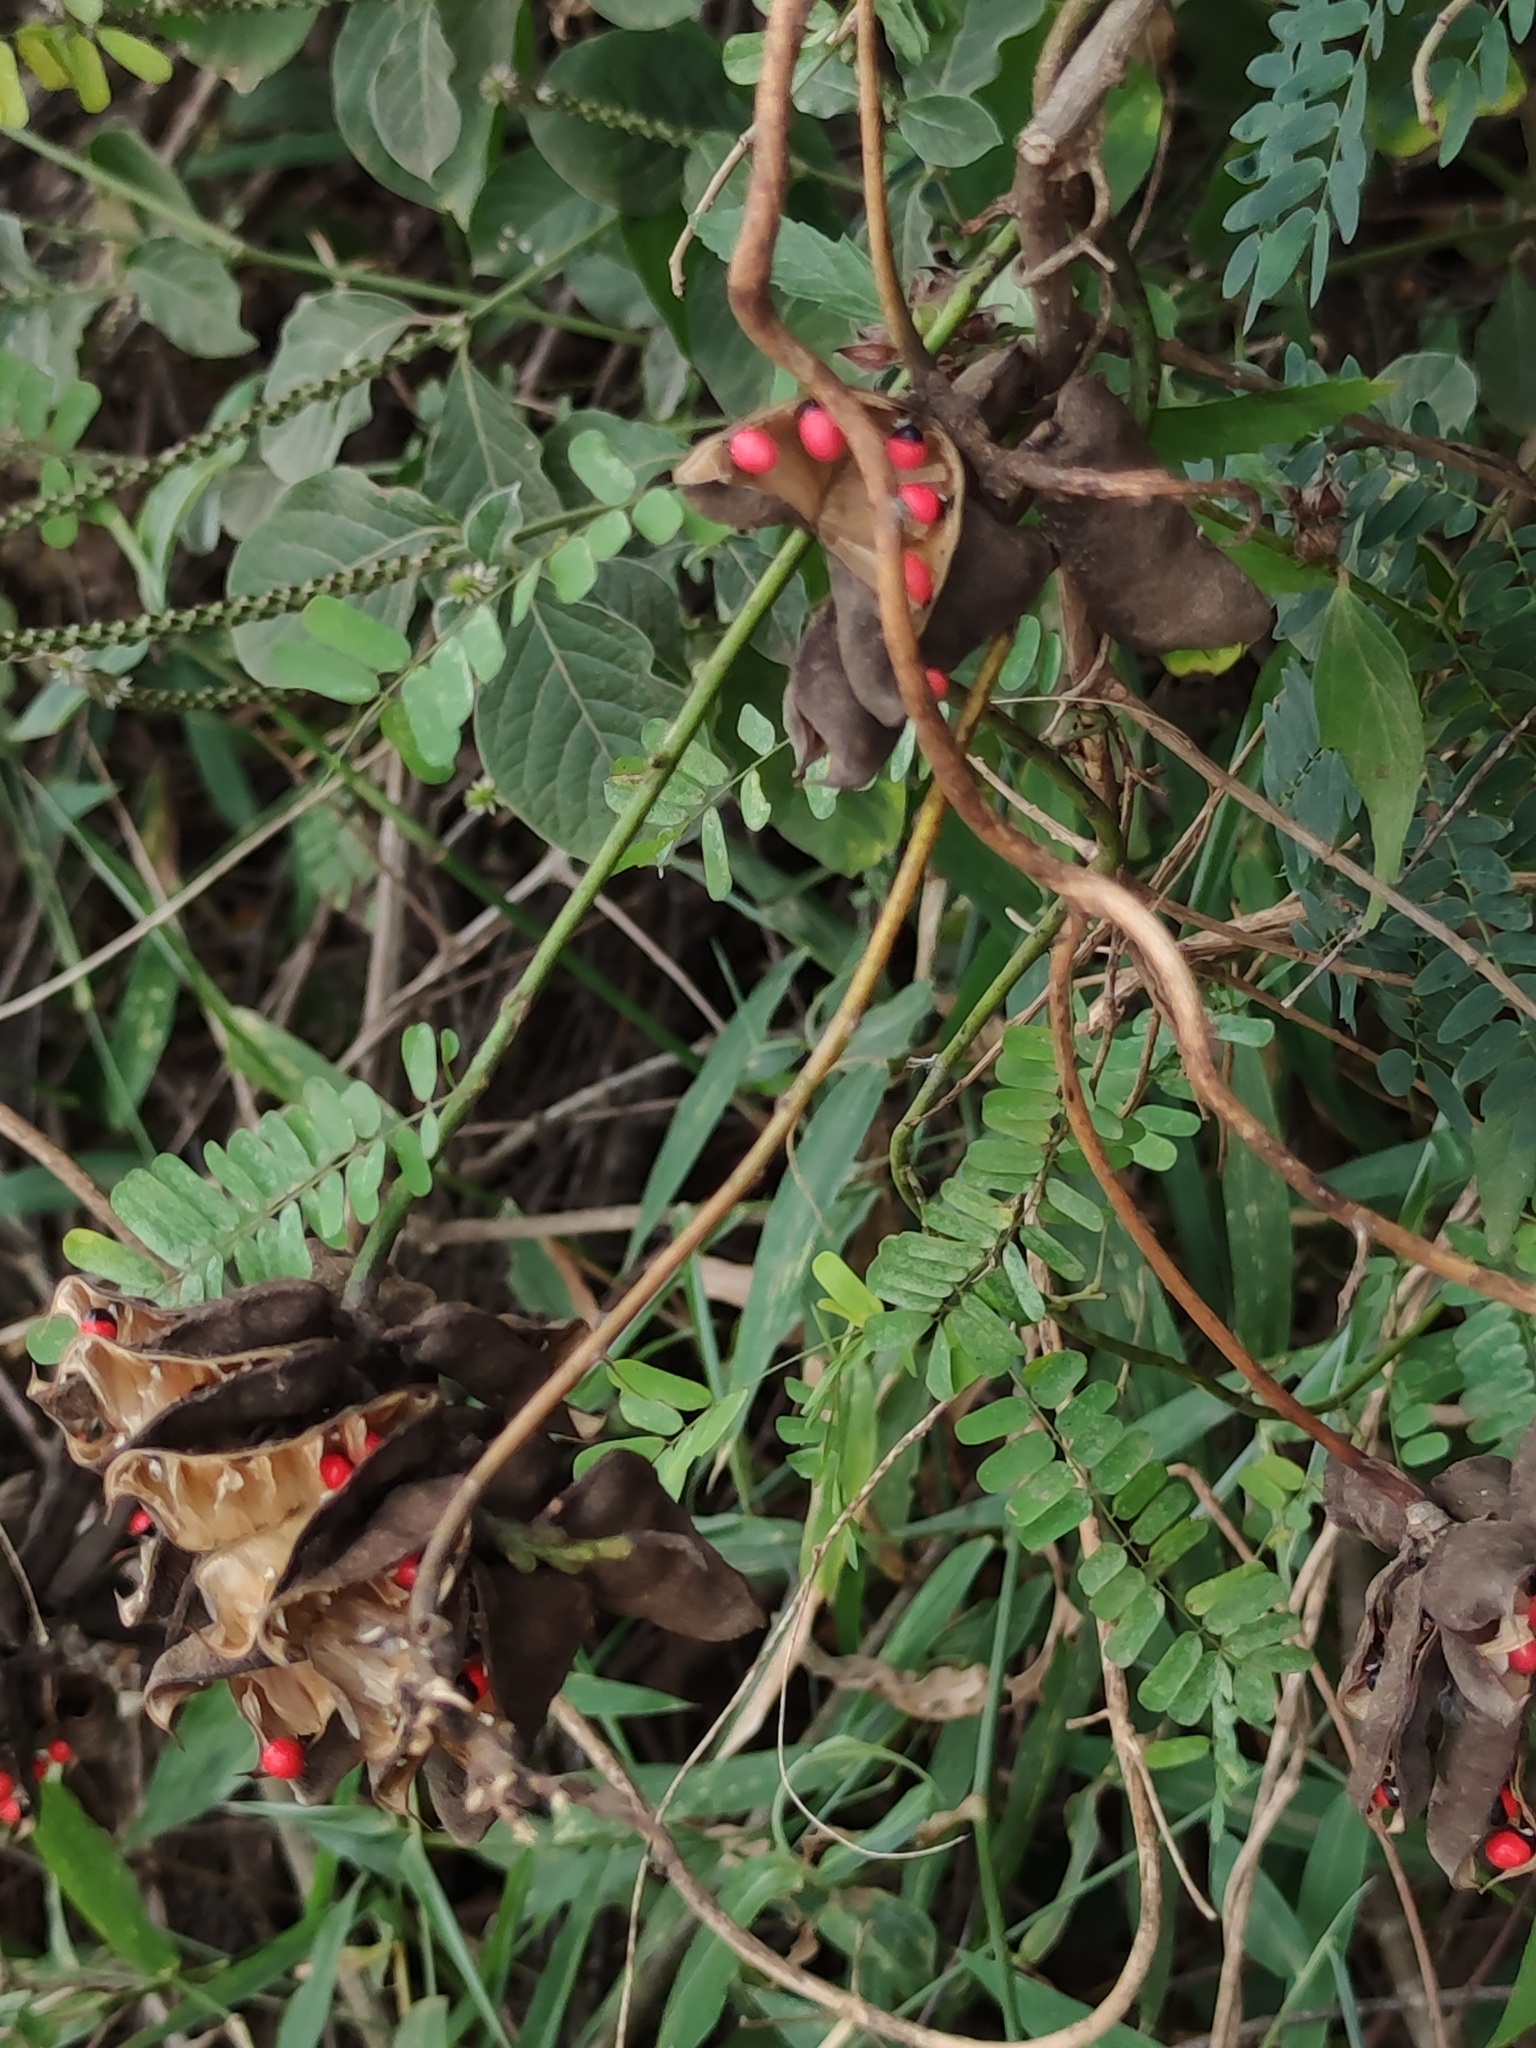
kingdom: Plantae
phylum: Tracheophyta
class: Magnoliopsida
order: Fabales
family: Fabaceae
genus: Abrus
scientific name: Abrus precatorius
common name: Rosarypea
